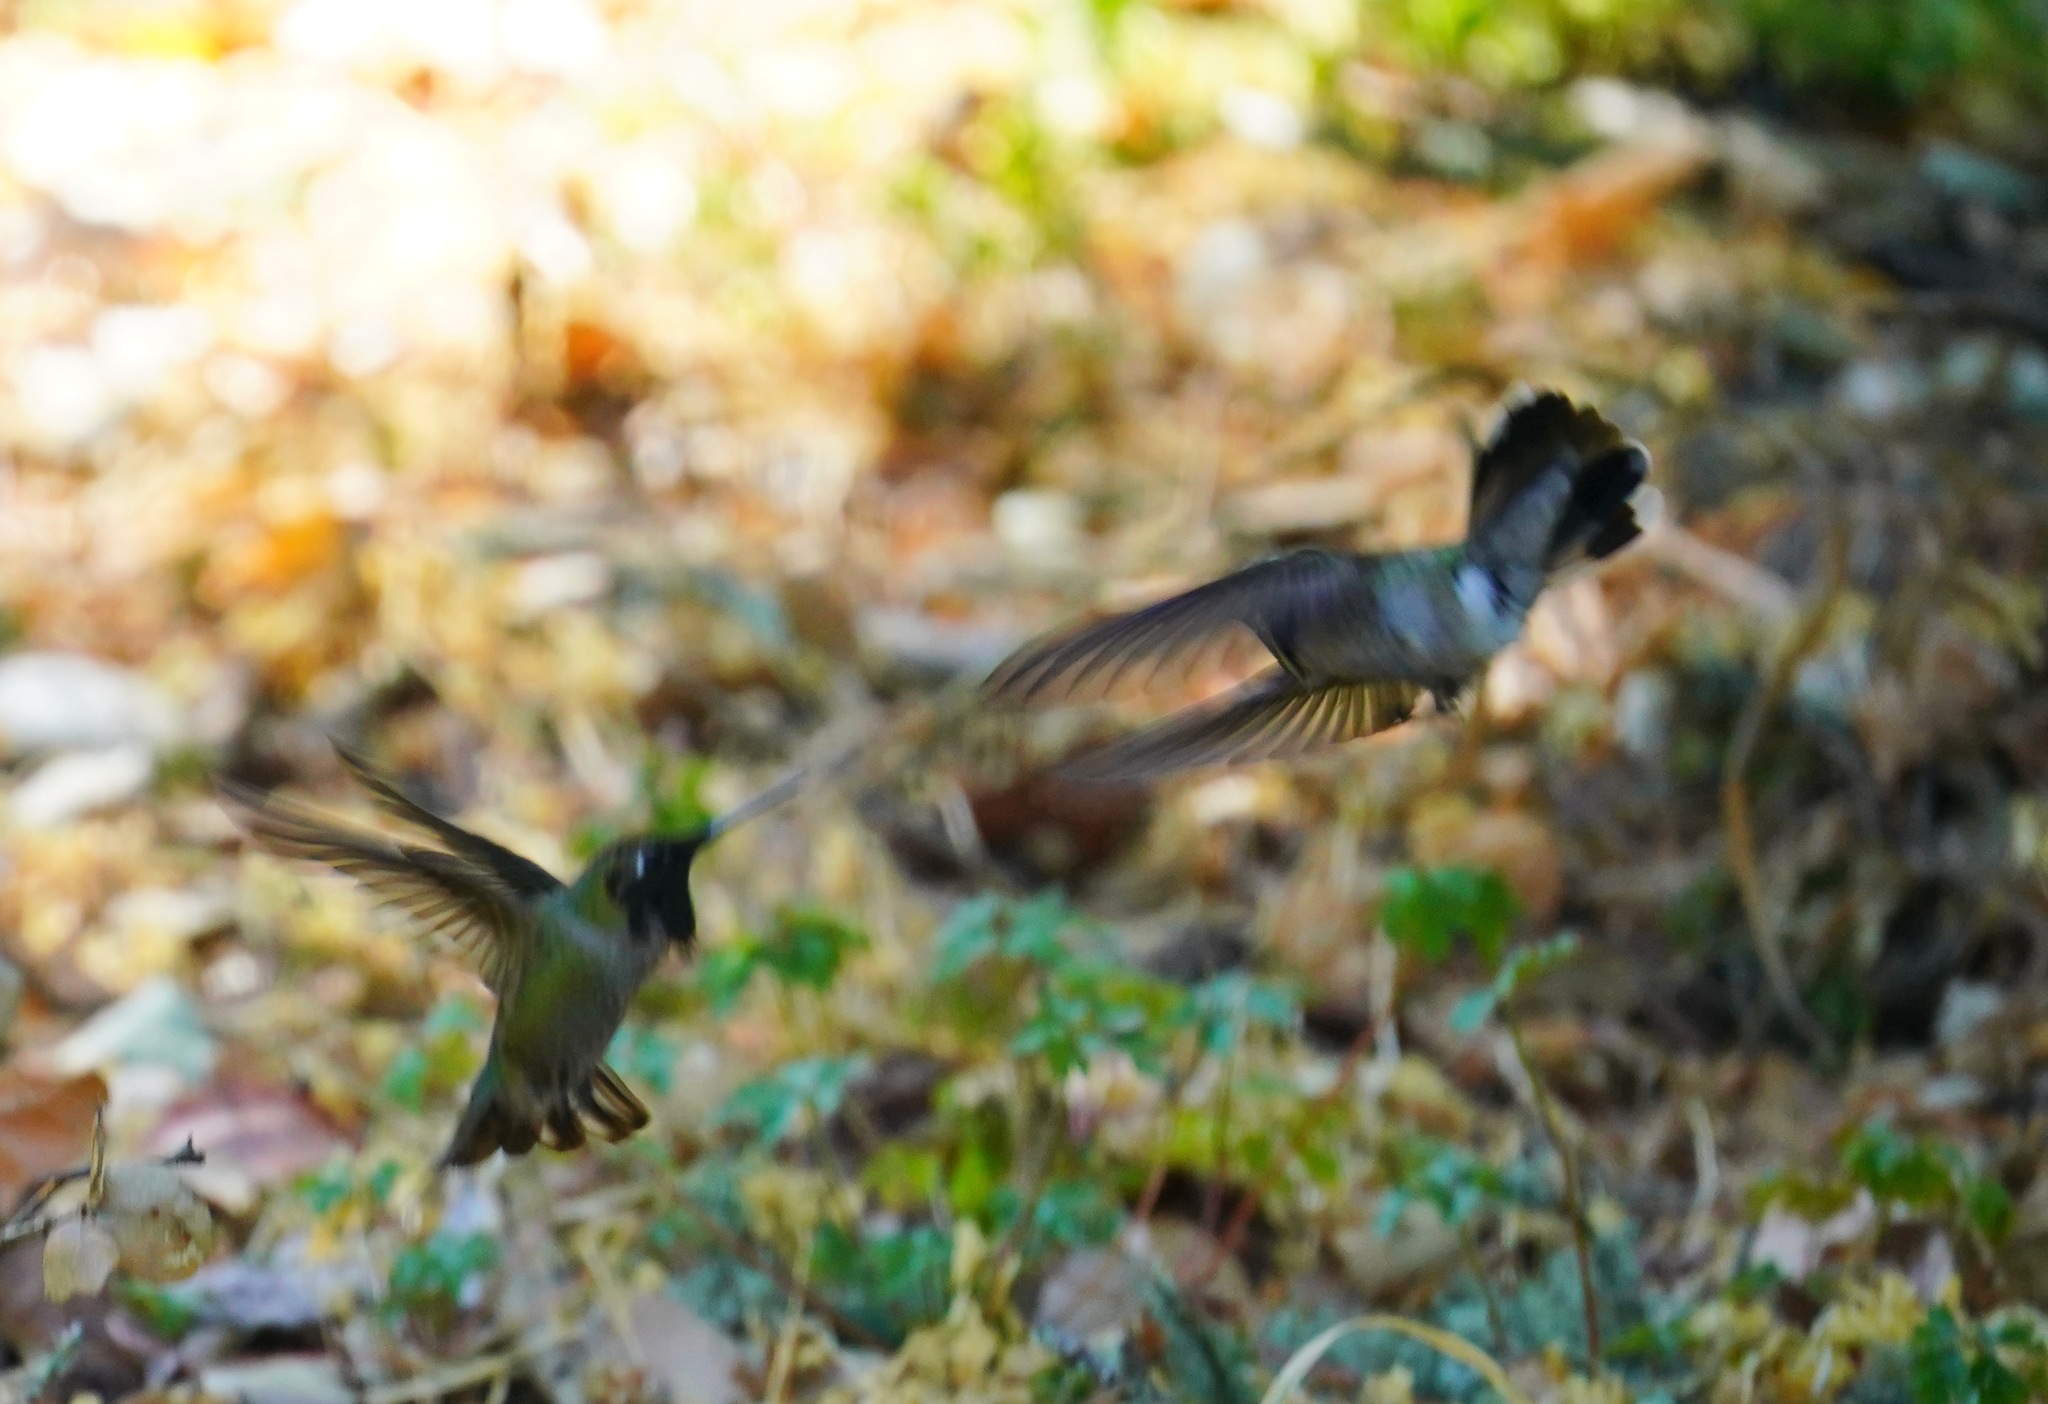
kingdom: Animalia
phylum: Chordata
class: Aves
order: Apodiformes
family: Trochilidae
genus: Calypte
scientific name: Calypte anna
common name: Anna's hummingbird
